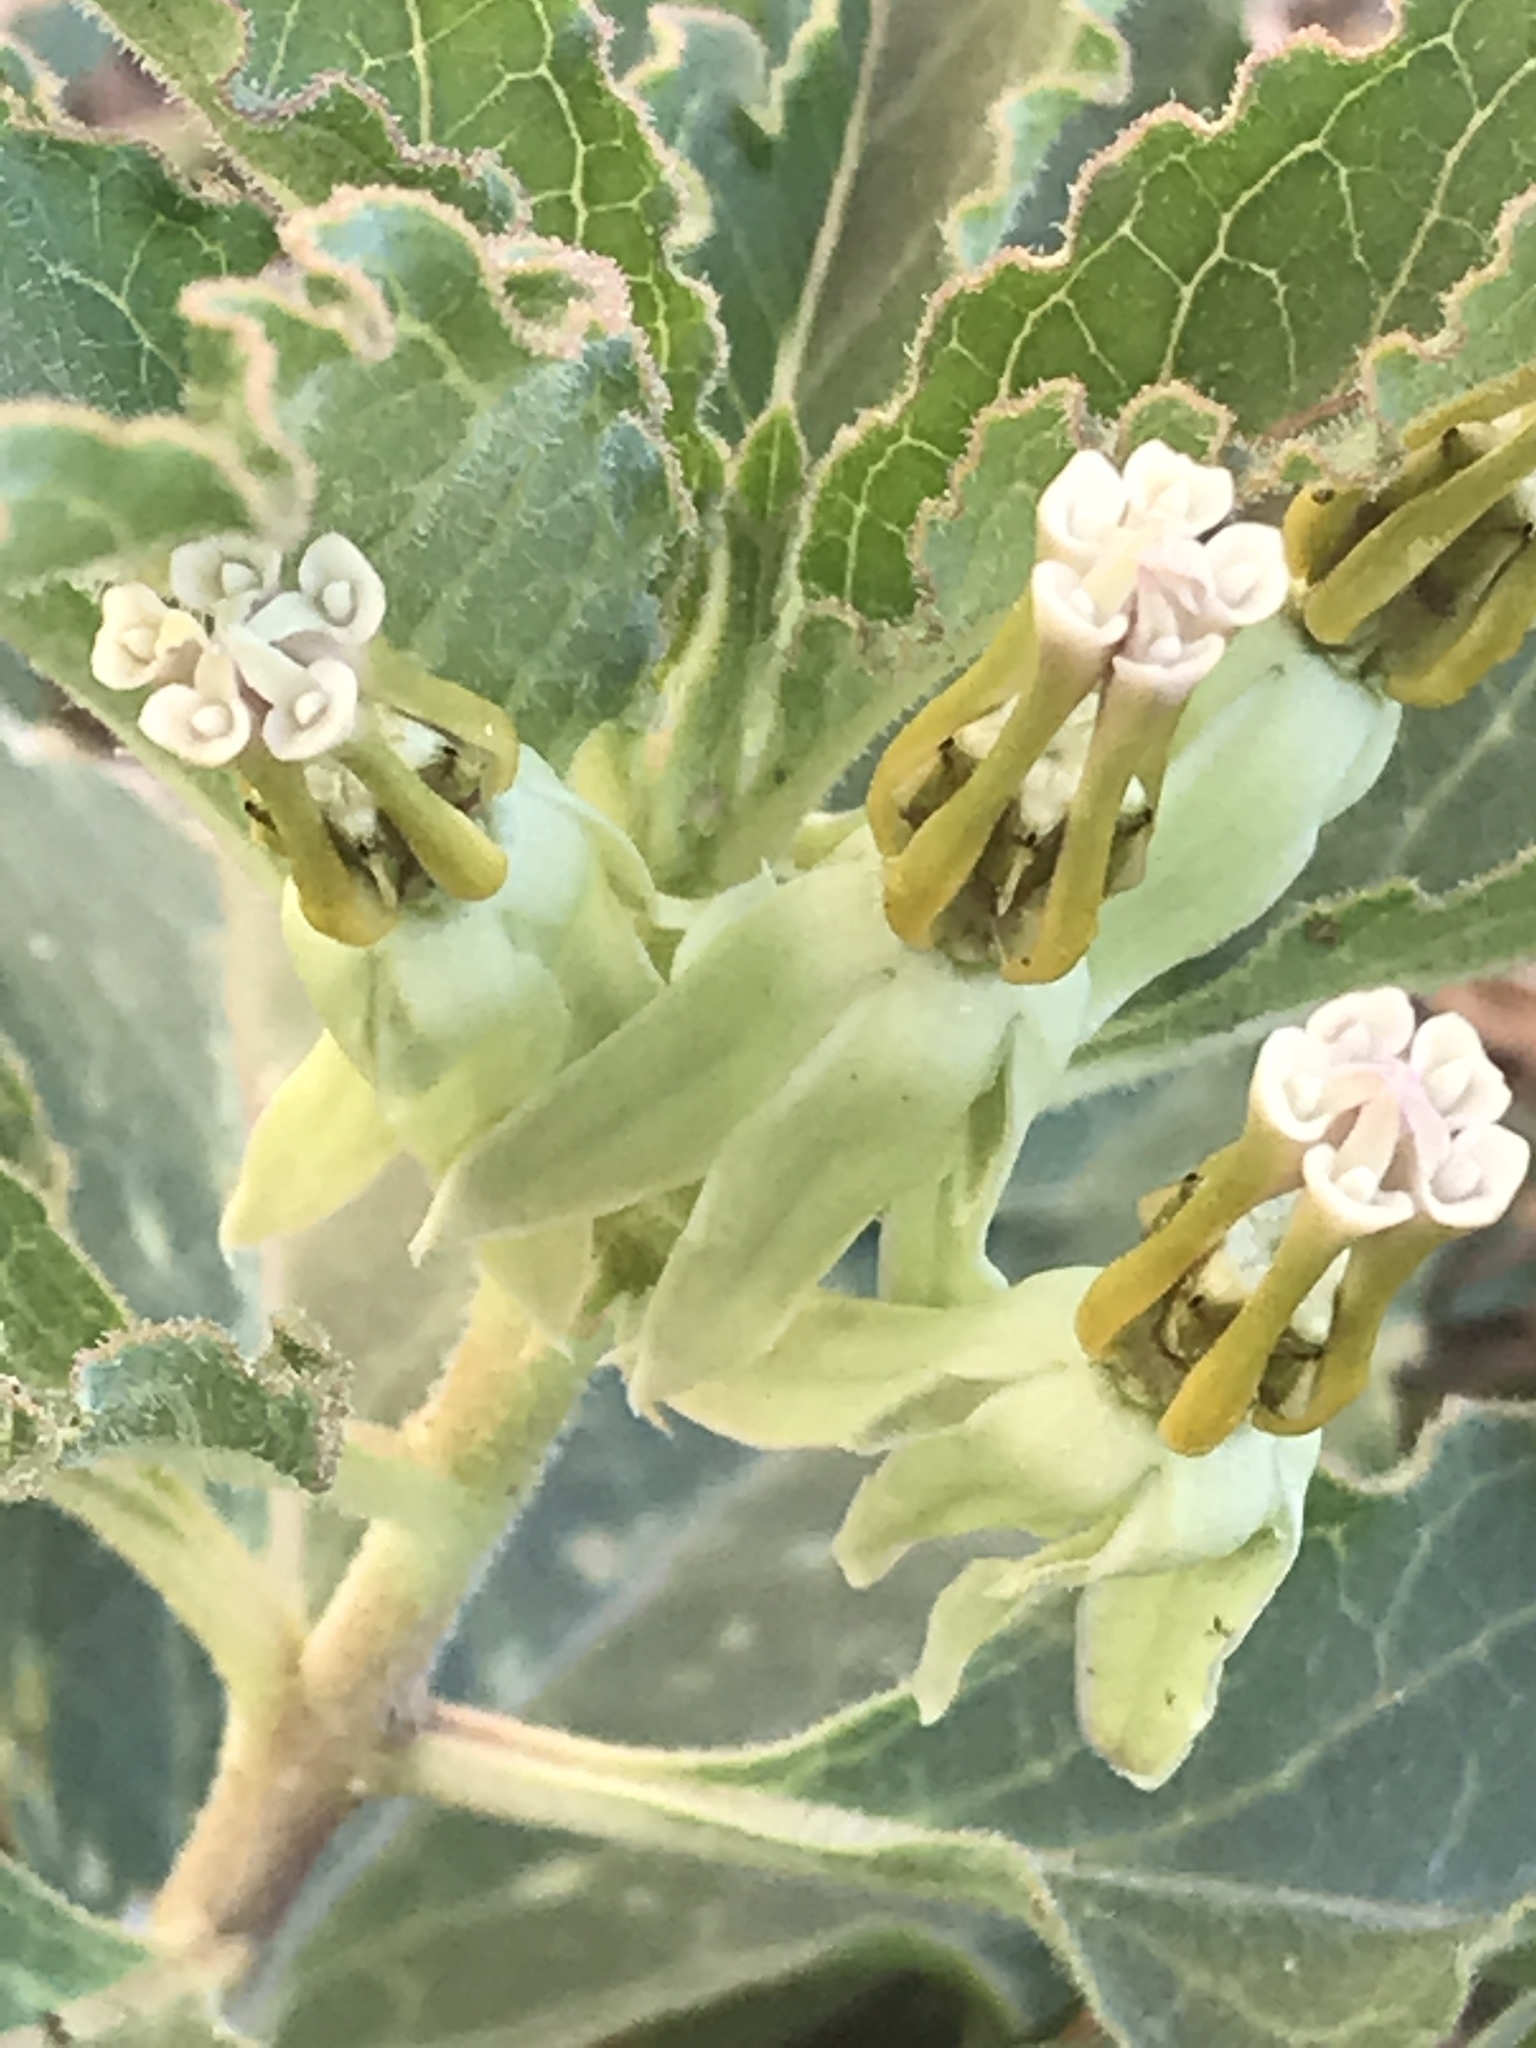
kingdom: Plantae
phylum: Tracheophyta
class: Magnoliopsida
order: Gentianales
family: Apocynaceae
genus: Asclepias
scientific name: Asclepias oenotheroides
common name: Zizotes milkweed
